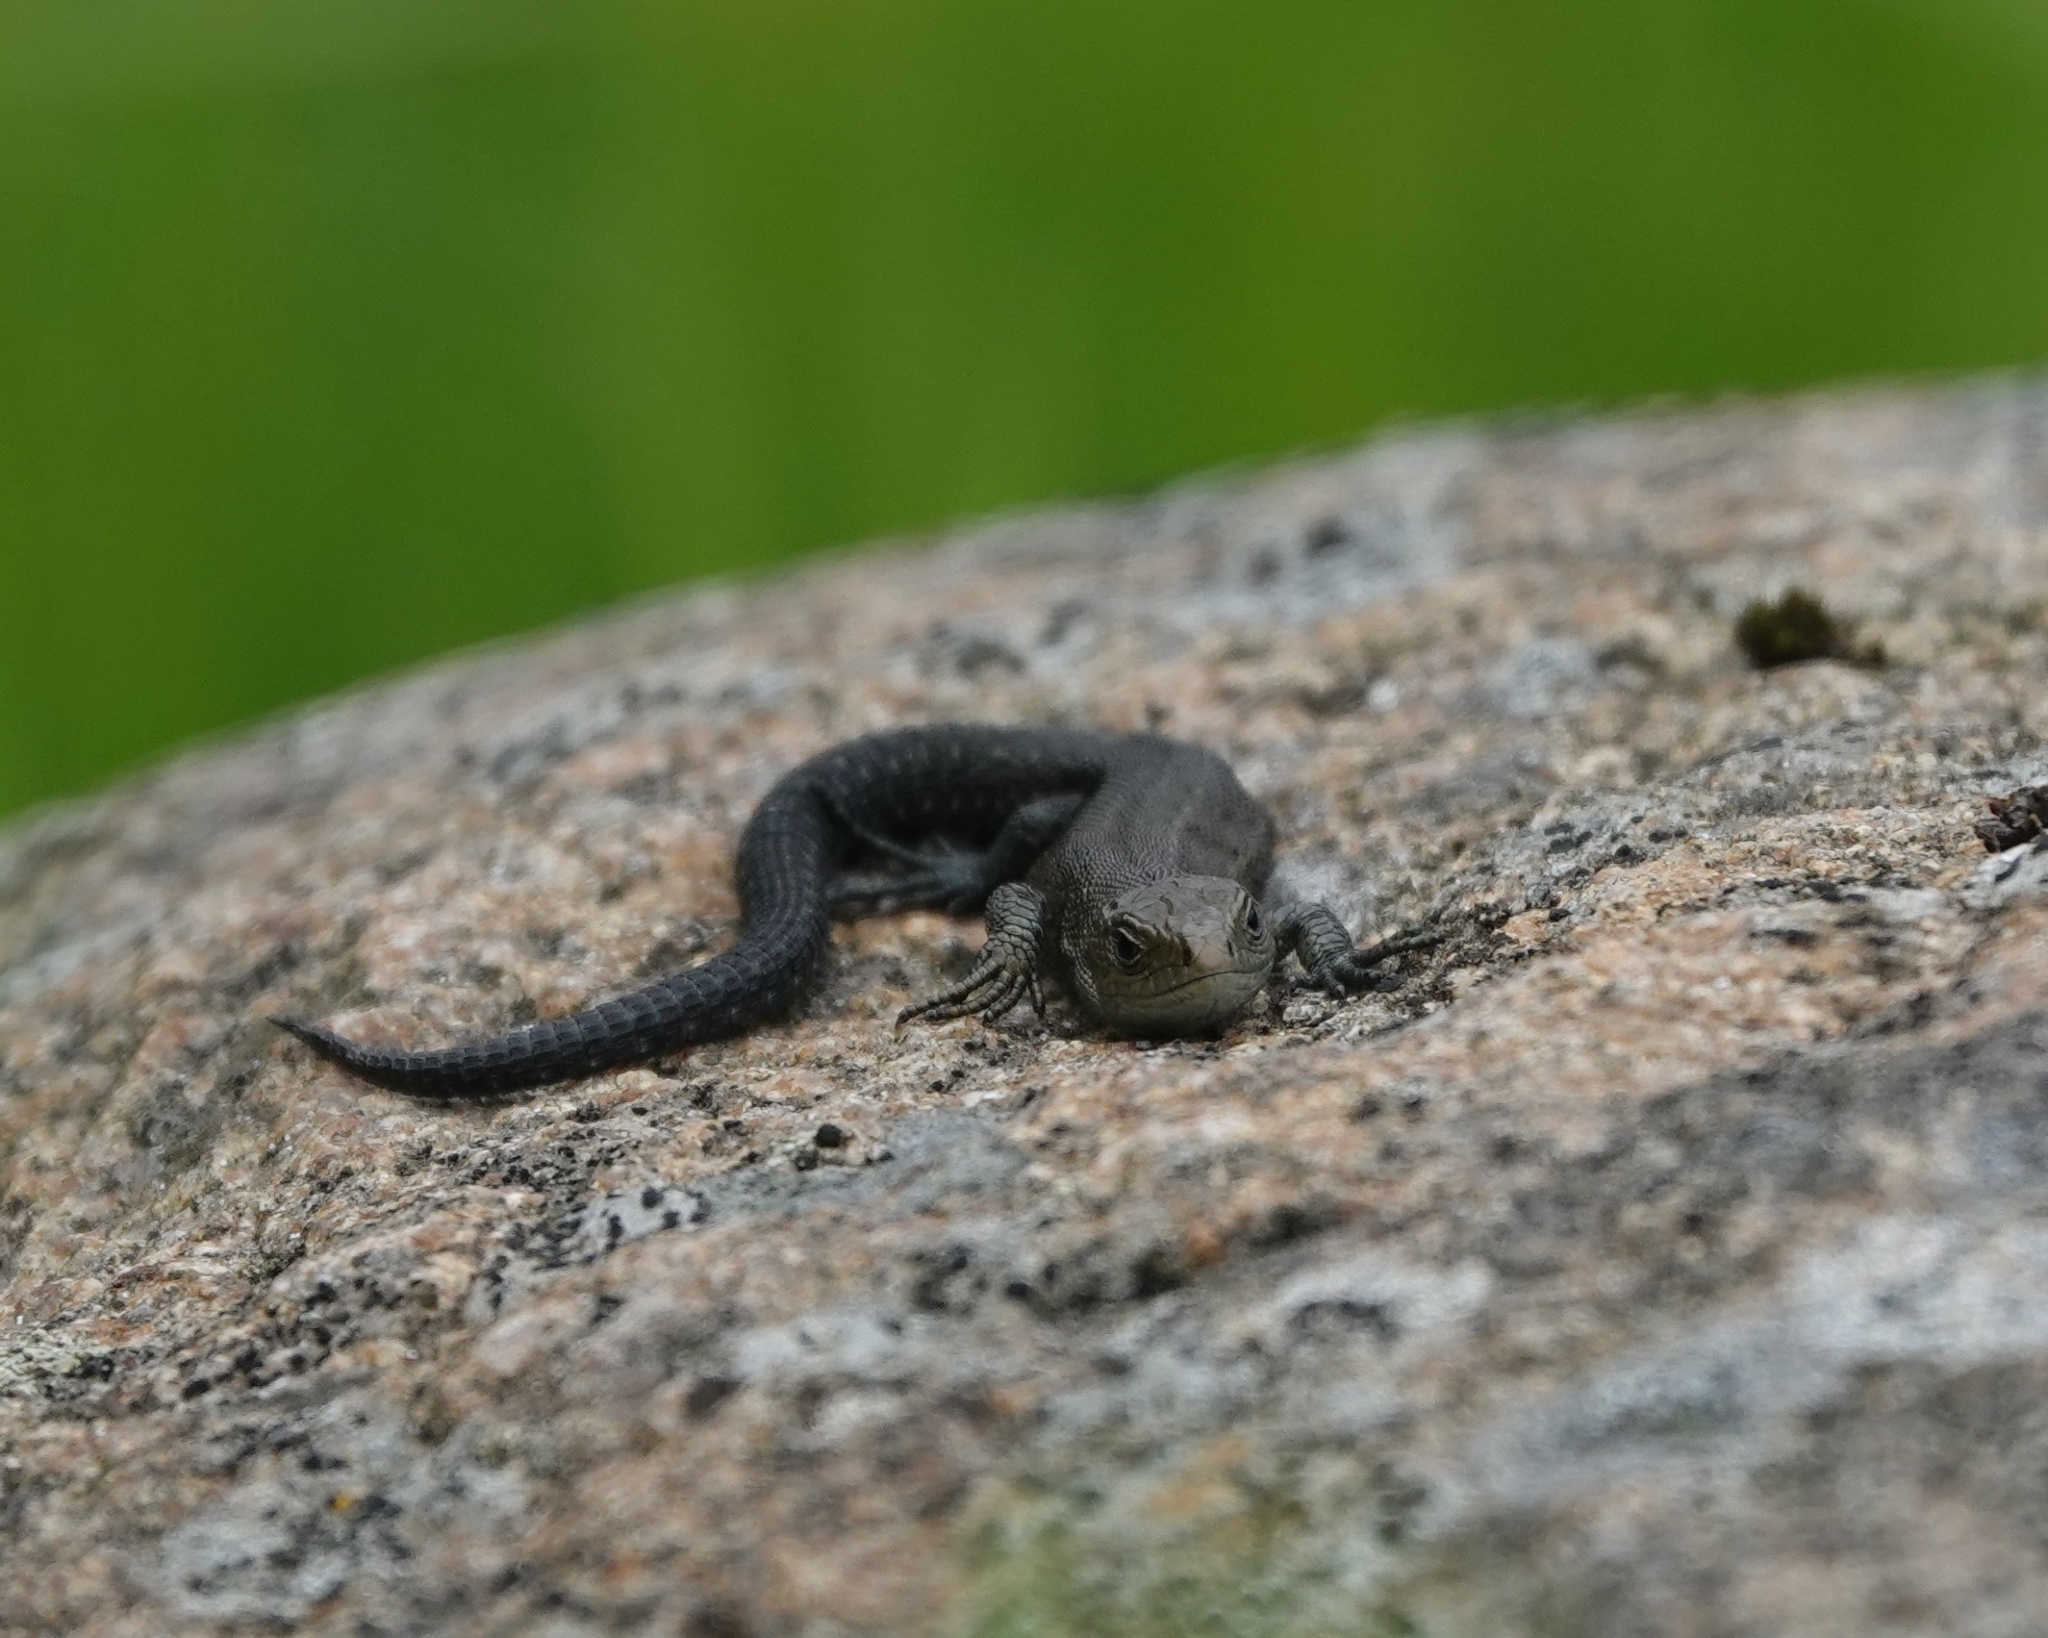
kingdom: Animalia
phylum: Chordata
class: Squamata
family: Lacertidae
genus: Zootoca
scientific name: Zootoca vivipara
